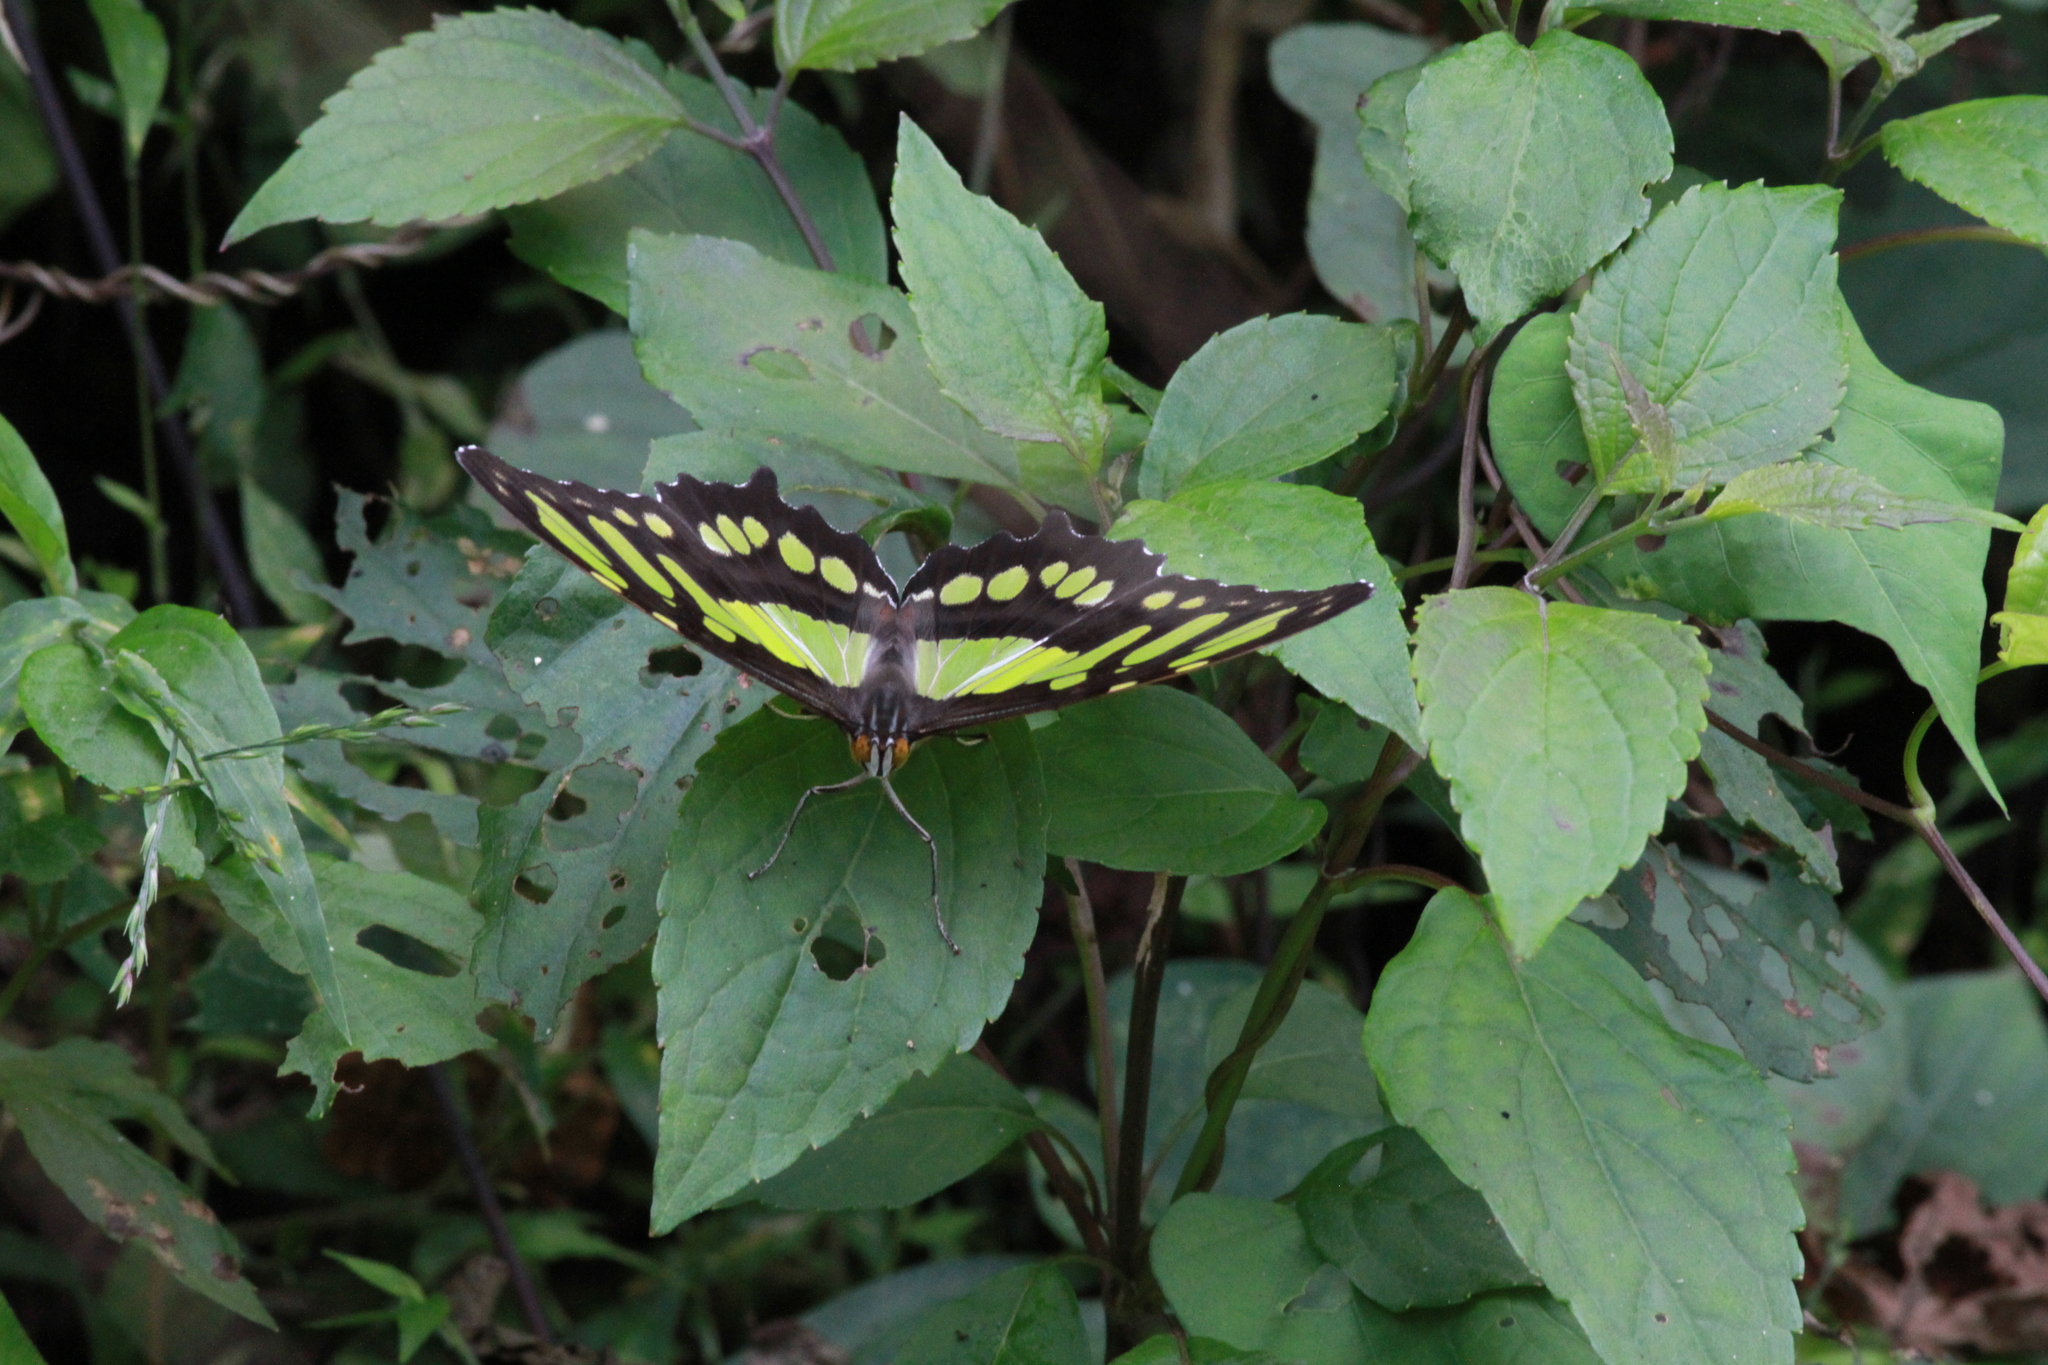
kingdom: Animalia
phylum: Arthropoda
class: Insecta
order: Lepidoptera
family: Nymphalidae
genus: Siproeta
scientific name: Siproeta stelenes
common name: Malachite
